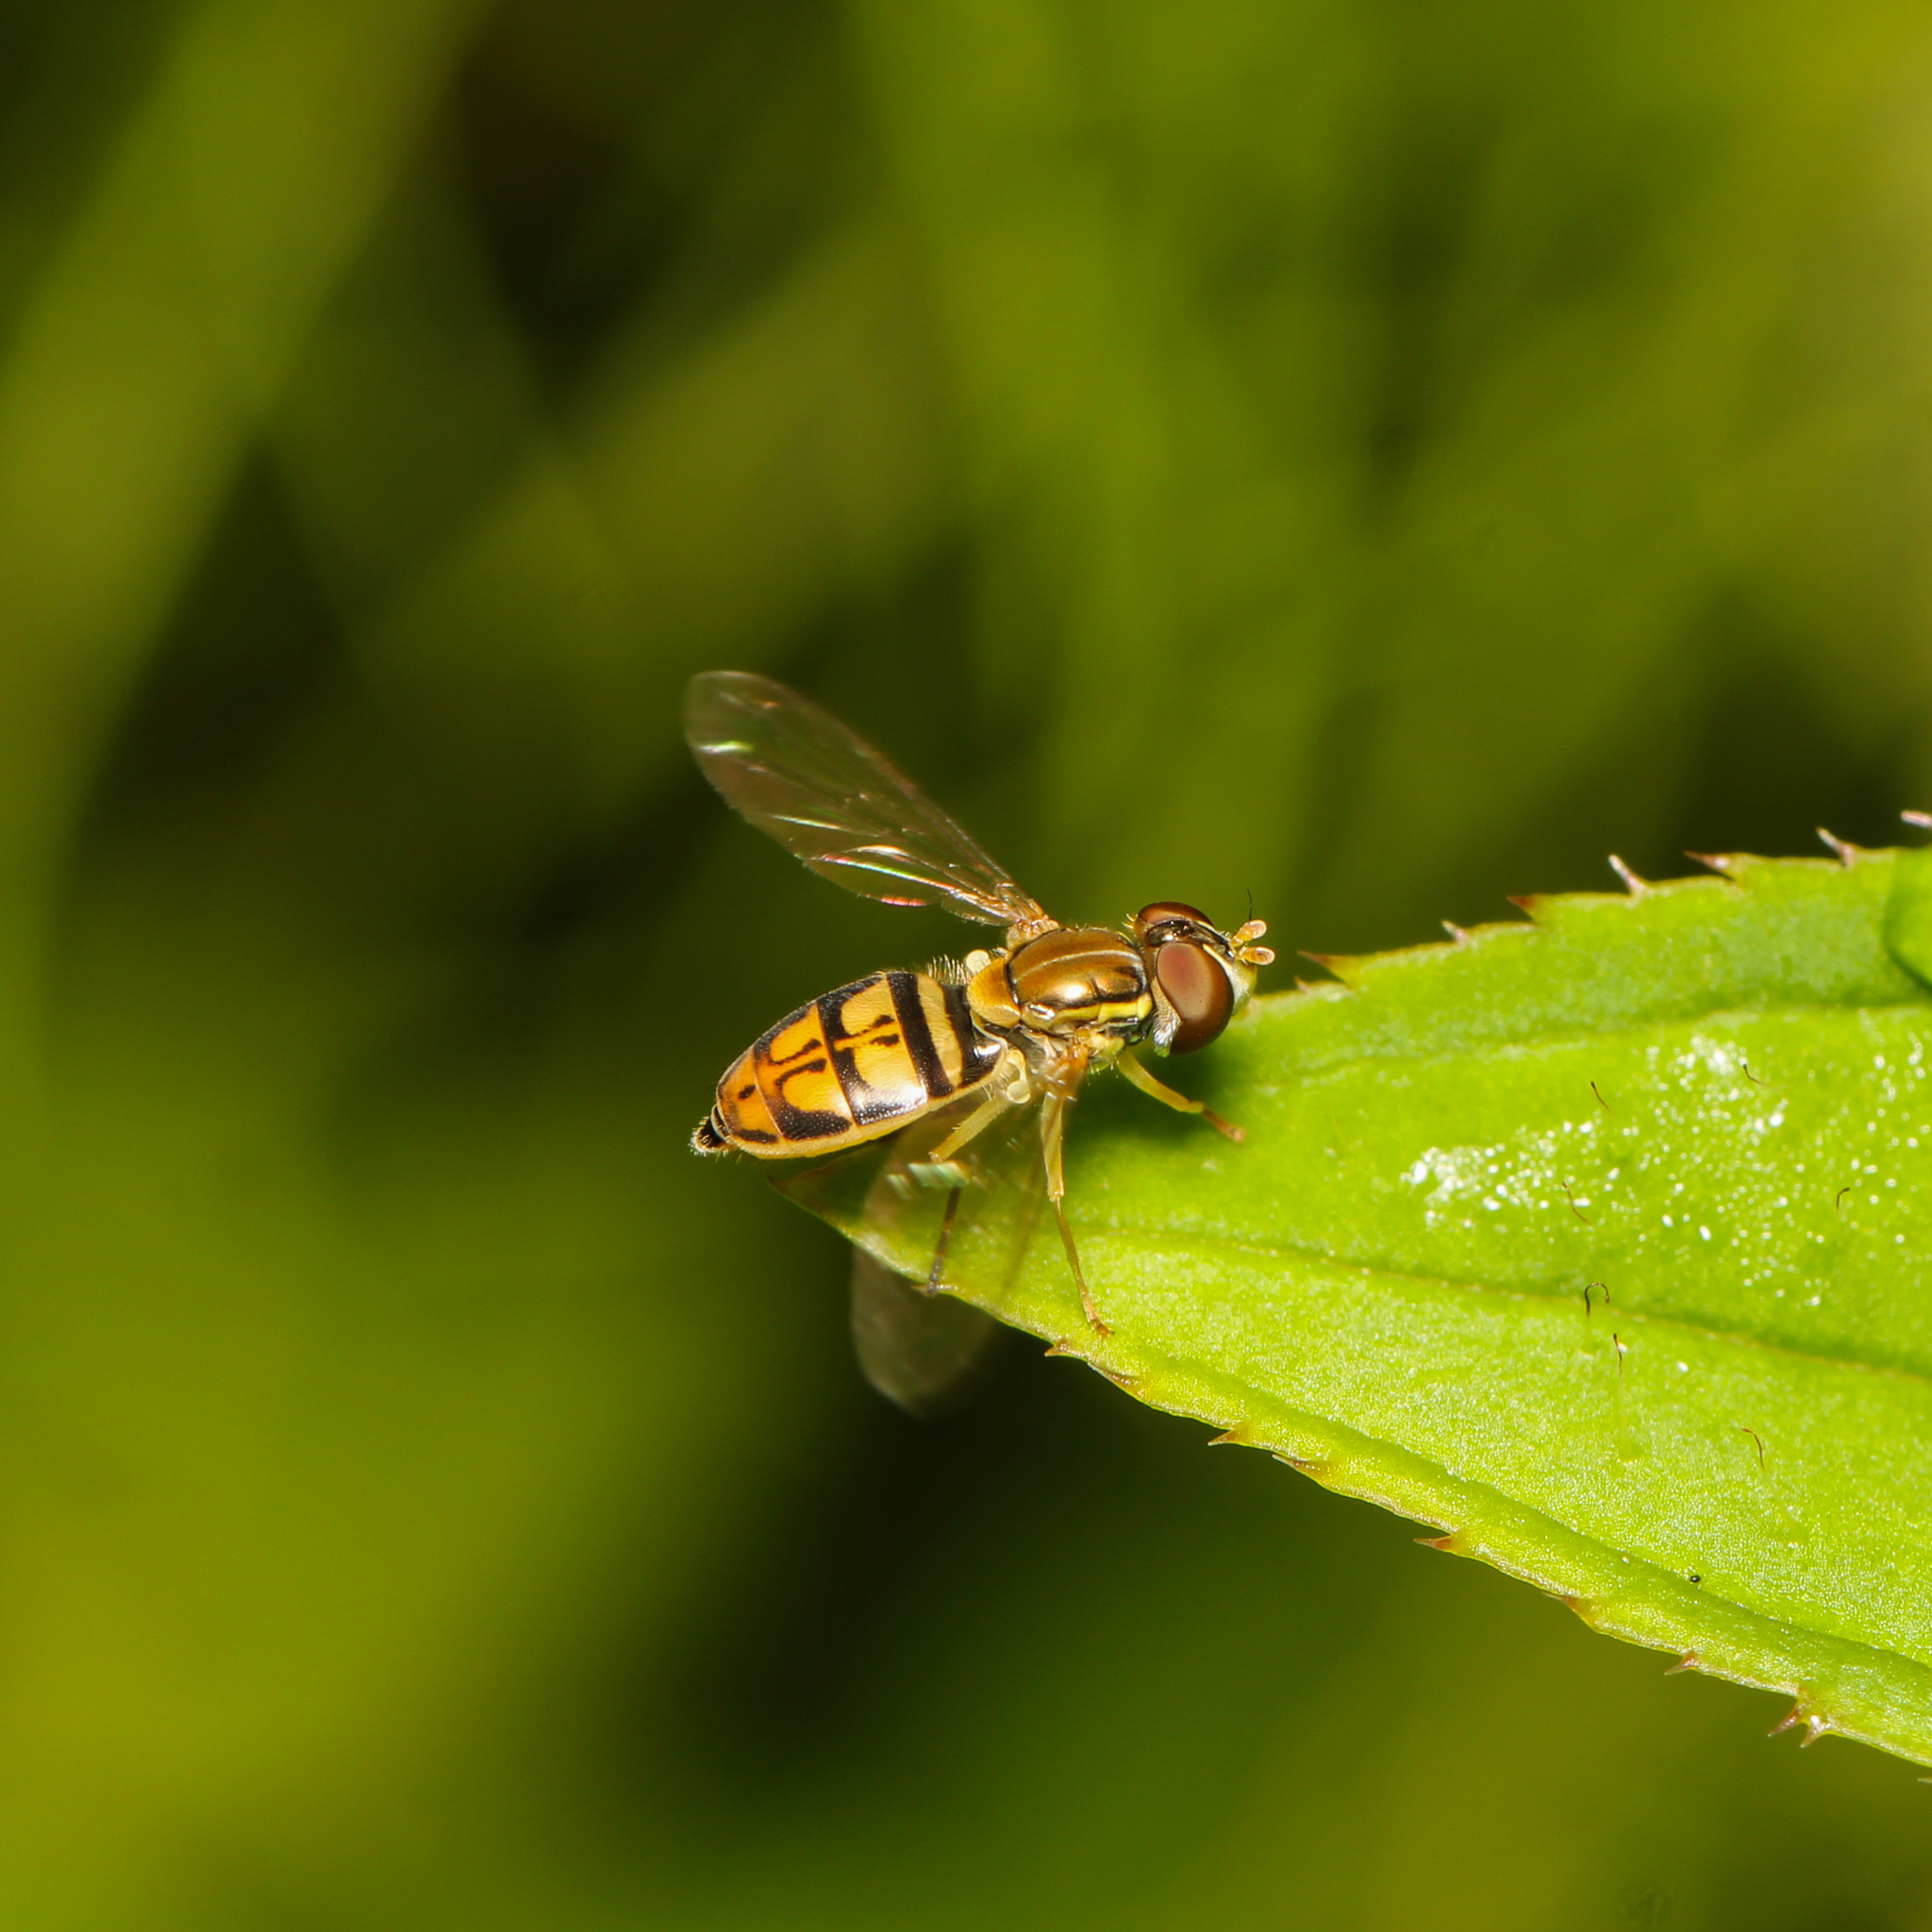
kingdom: Animalia
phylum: Arthropoda
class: Insecta
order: Diptera
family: Syrphidae
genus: Toxomerus
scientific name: Toxomerus marginatus
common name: Syrphid fly
